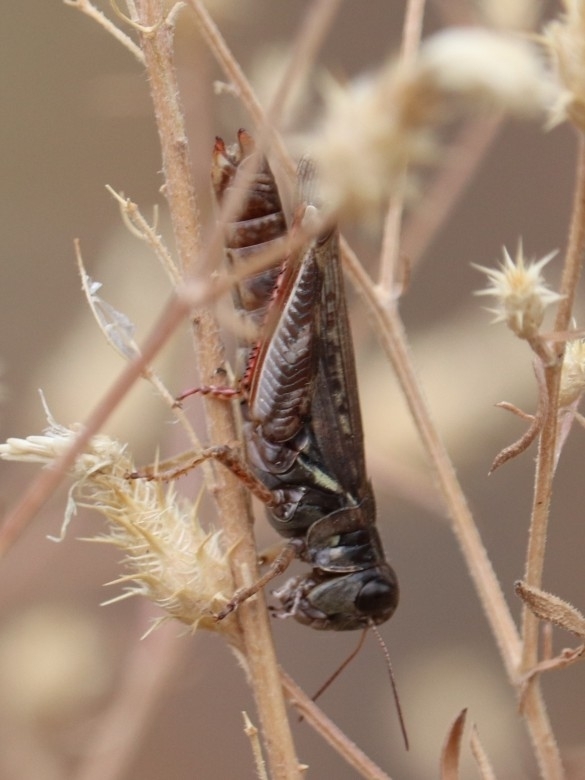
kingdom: Animalia
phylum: Arthropoda
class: Insecta
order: Orthoptera
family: Acrididae
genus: Melanoplus
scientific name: Melanoplus femurrubrum
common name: Red-legged grasshopper
